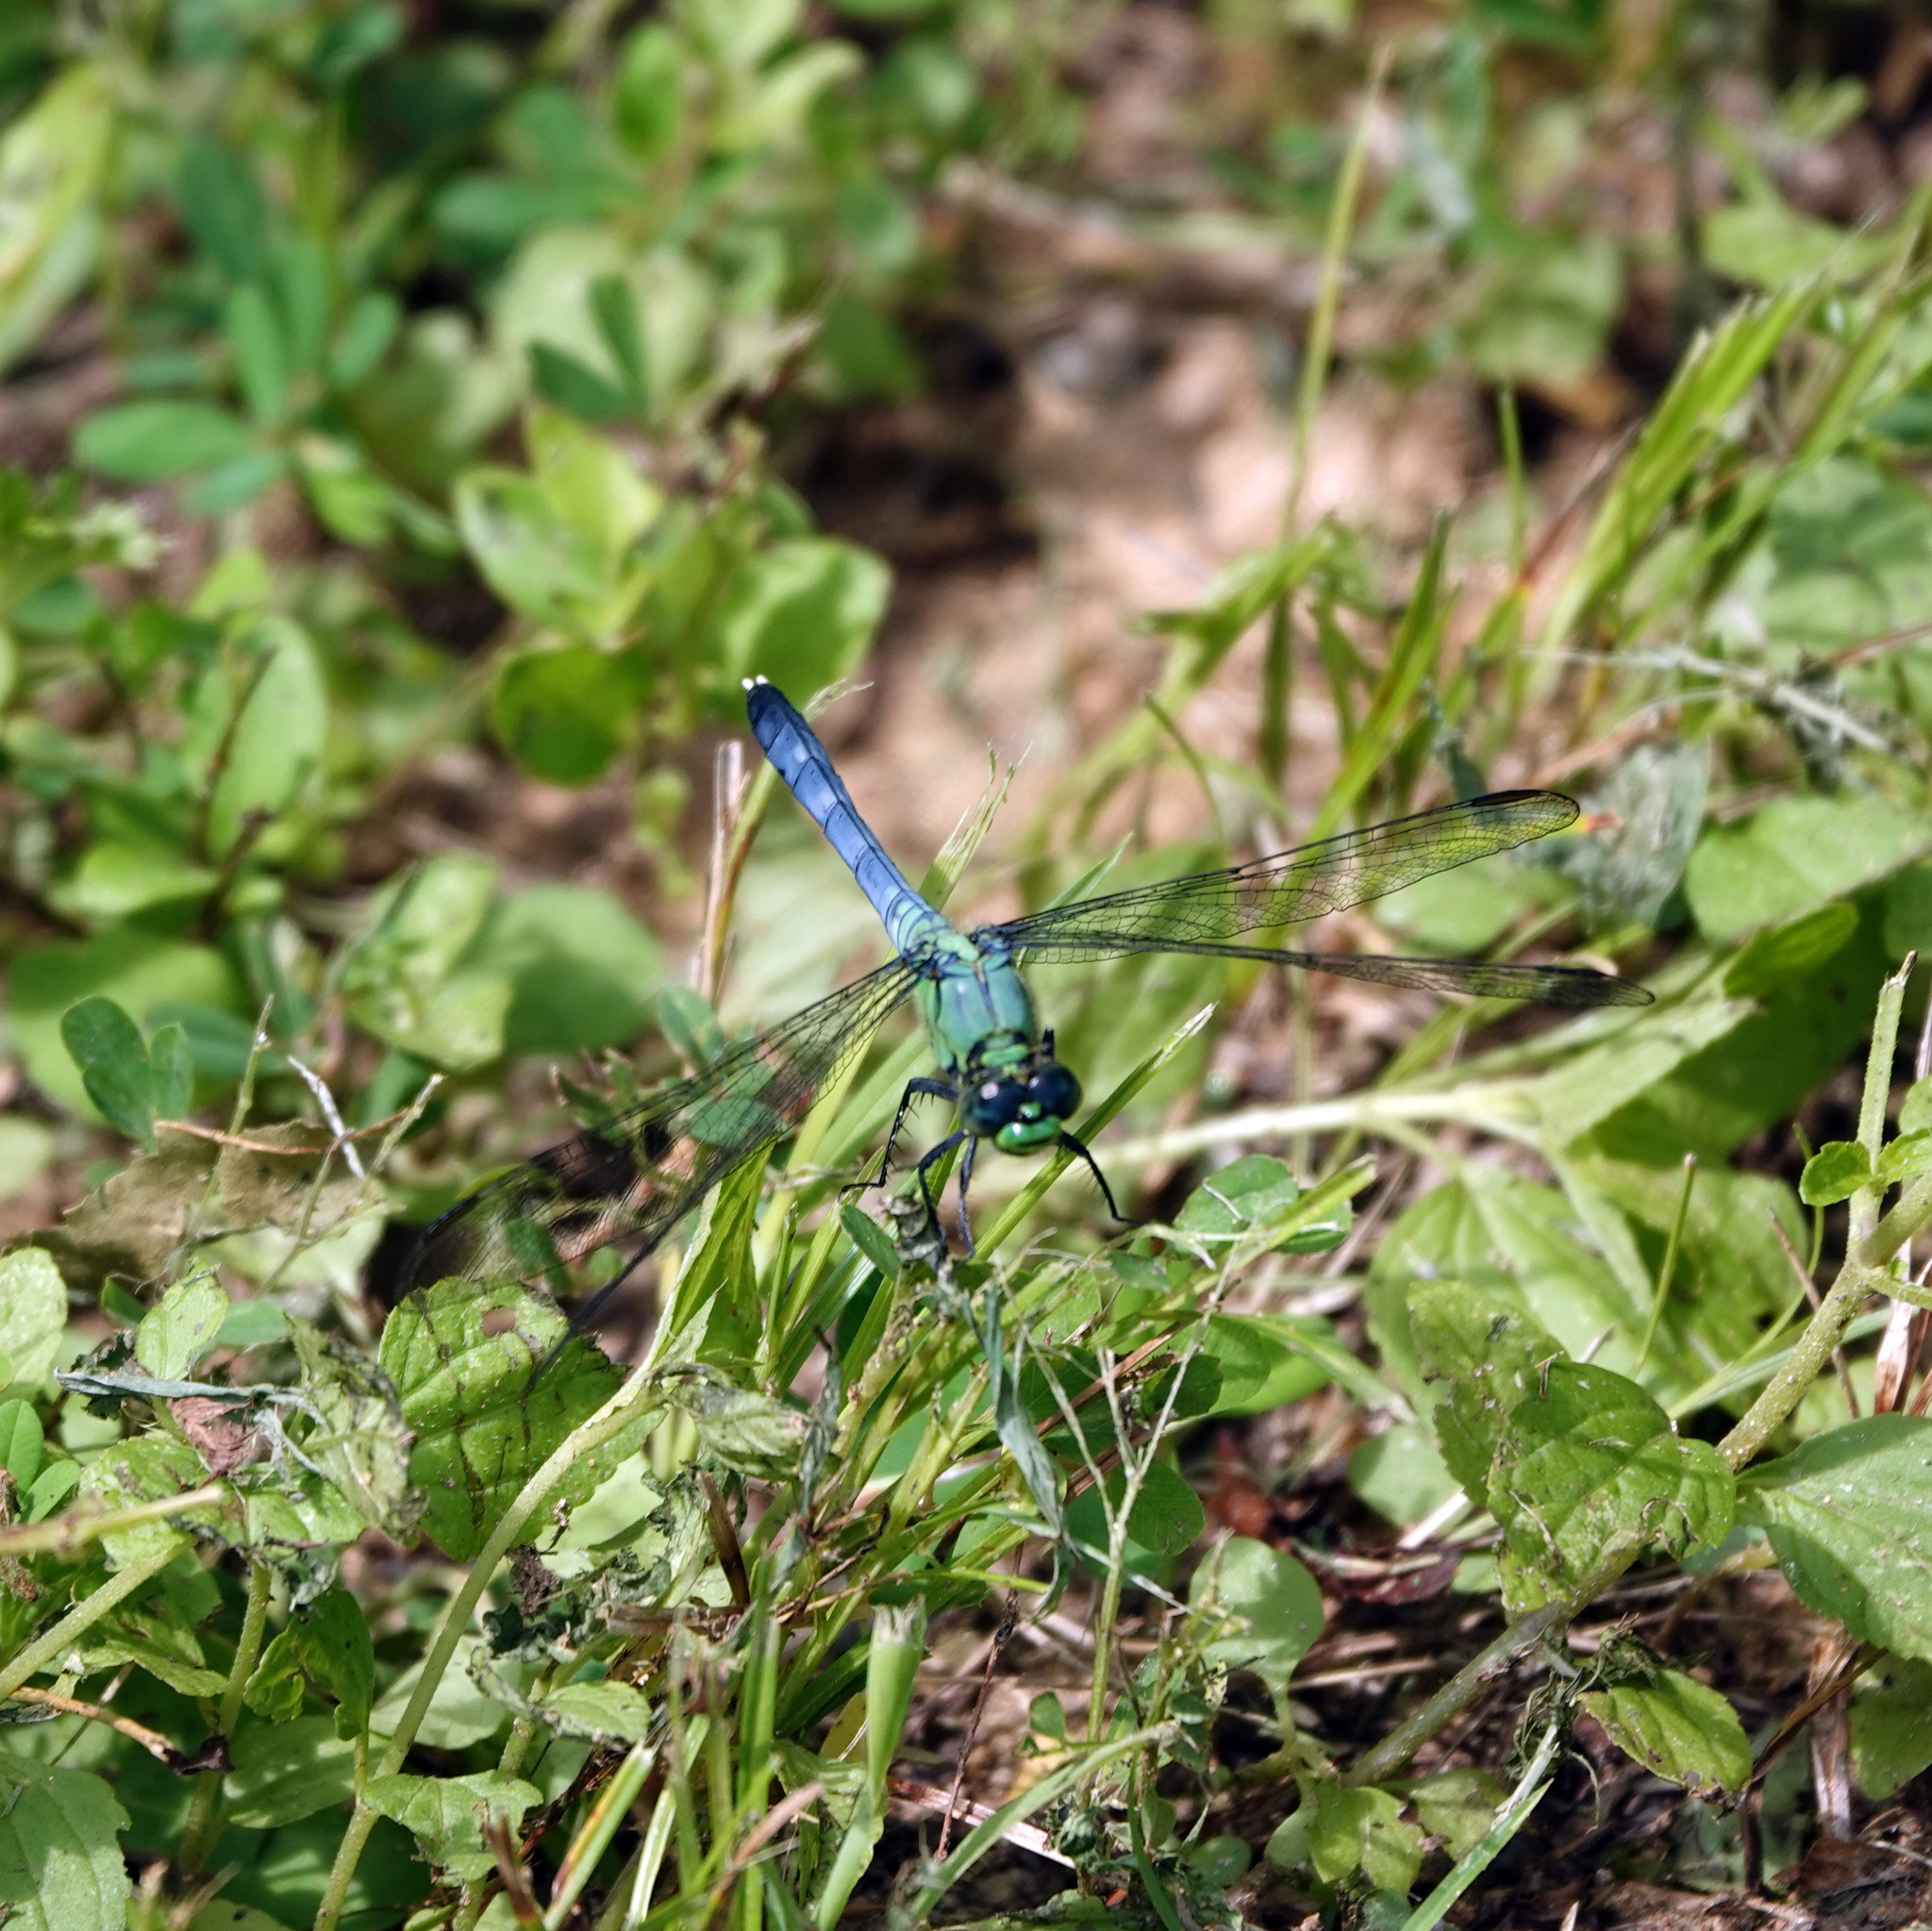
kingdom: Animalia
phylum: Arthropoda
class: Insecta
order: Odonata
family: Libellulidae
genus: Erythemis
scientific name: Erythemis simplicicollis
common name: Eastern pondhawk
